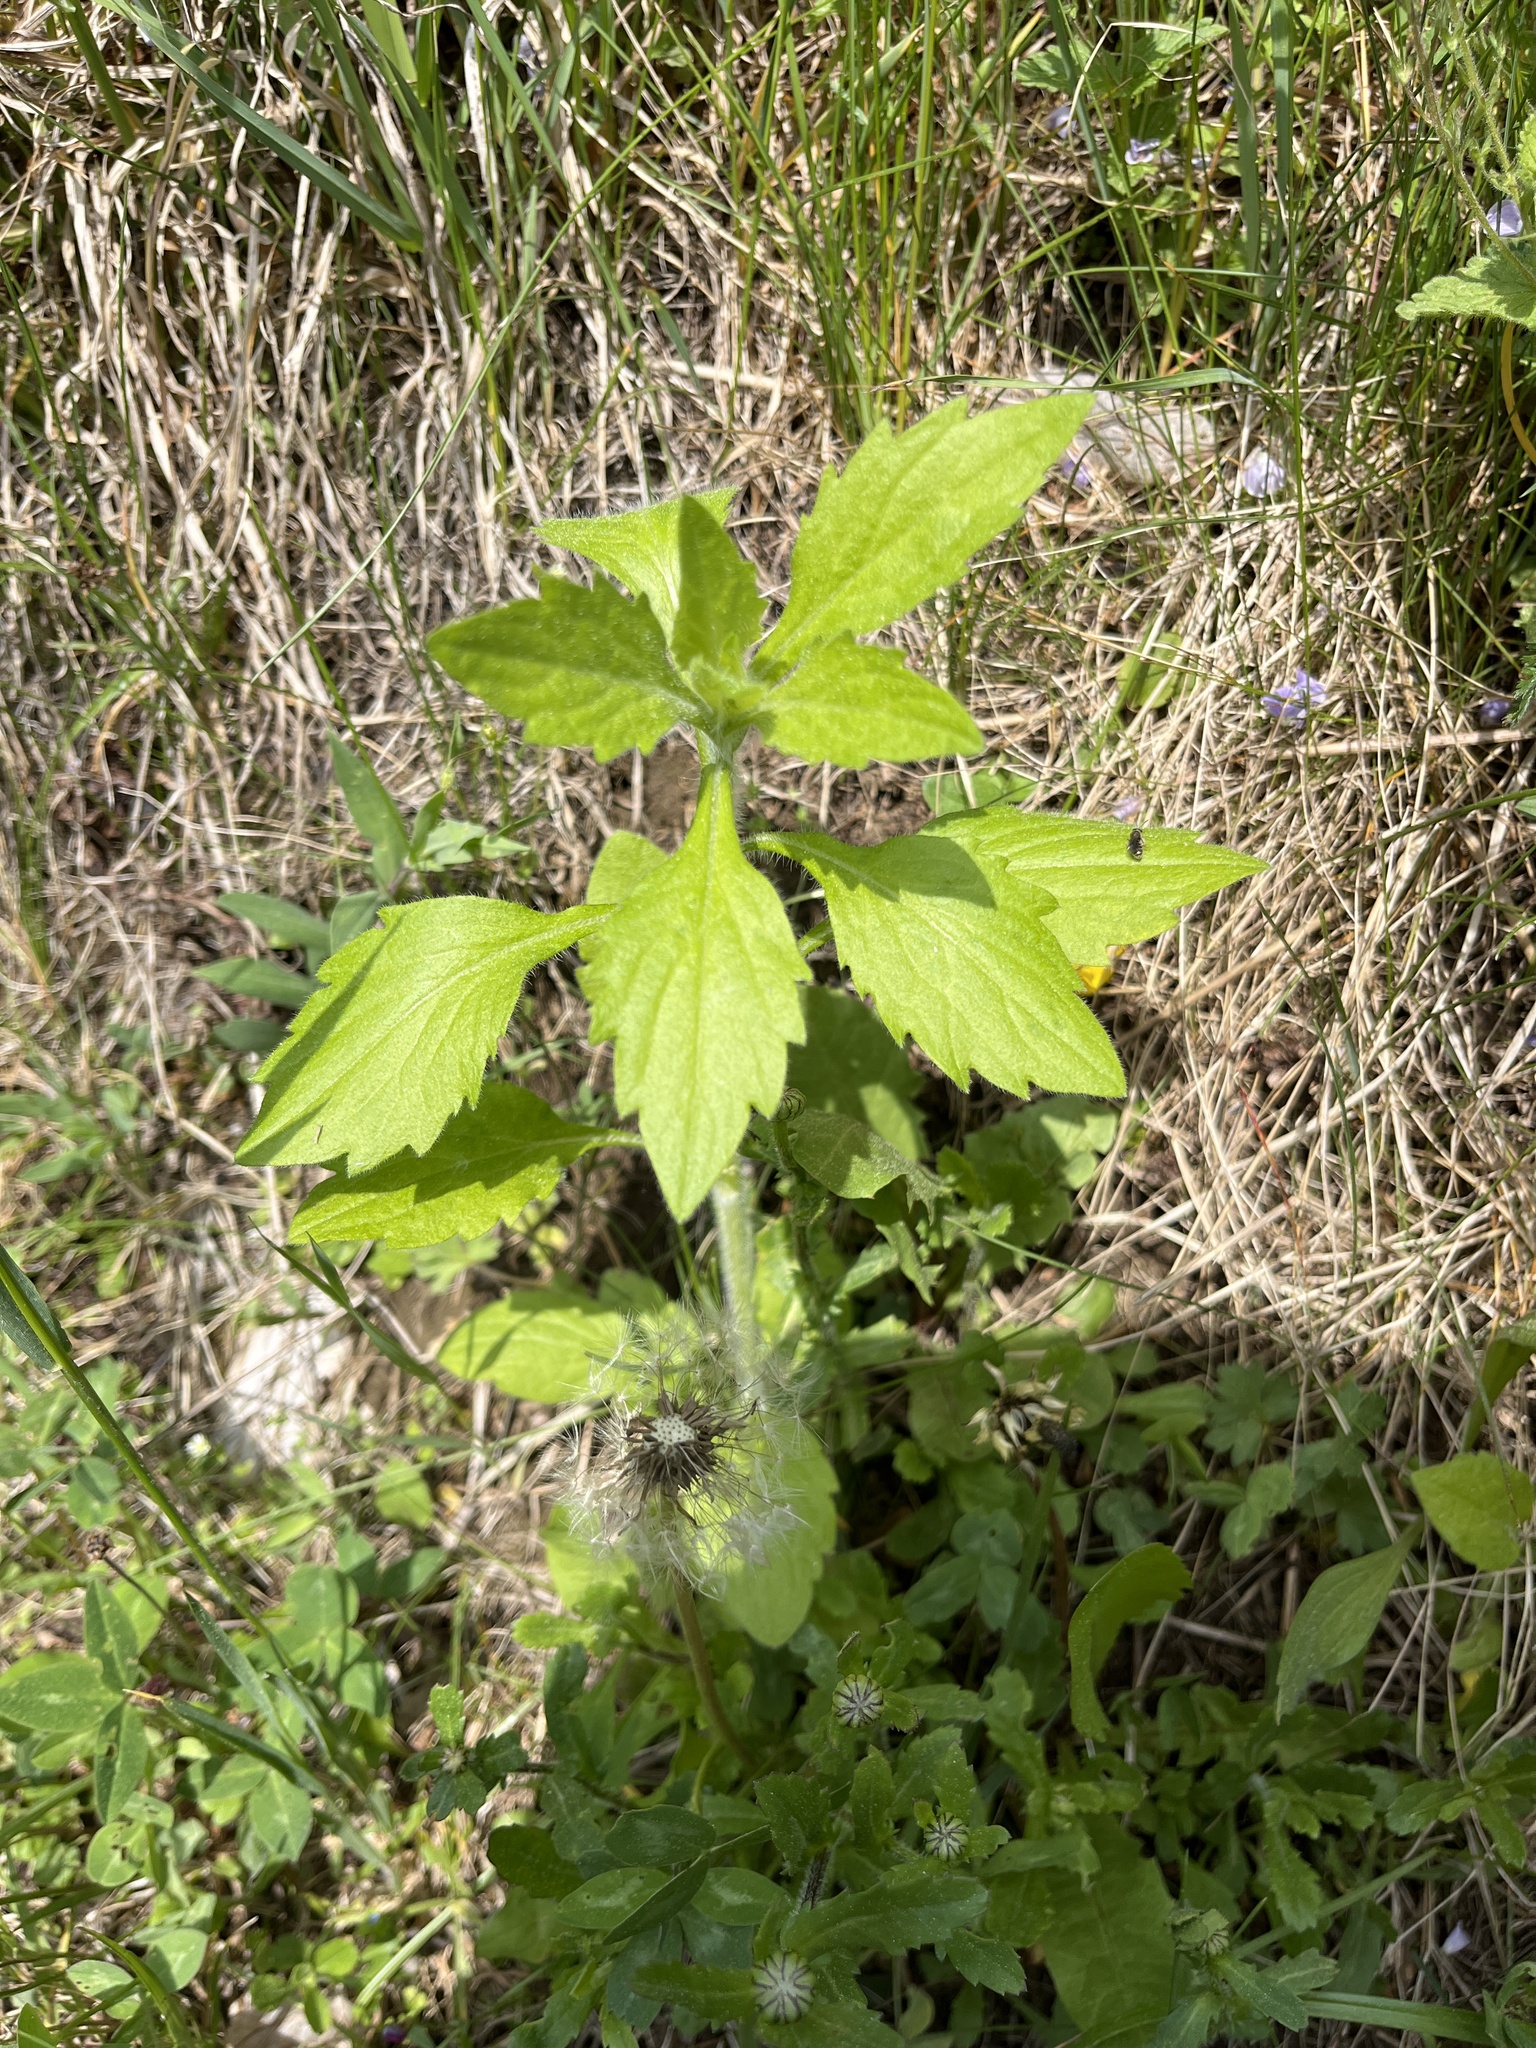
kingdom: Plantae
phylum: Tracheophyta
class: Magnoliopsida
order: Asterales
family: Asteraceae
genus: Erigeron
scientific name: Erigeron annuus
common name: Tall fleabane
